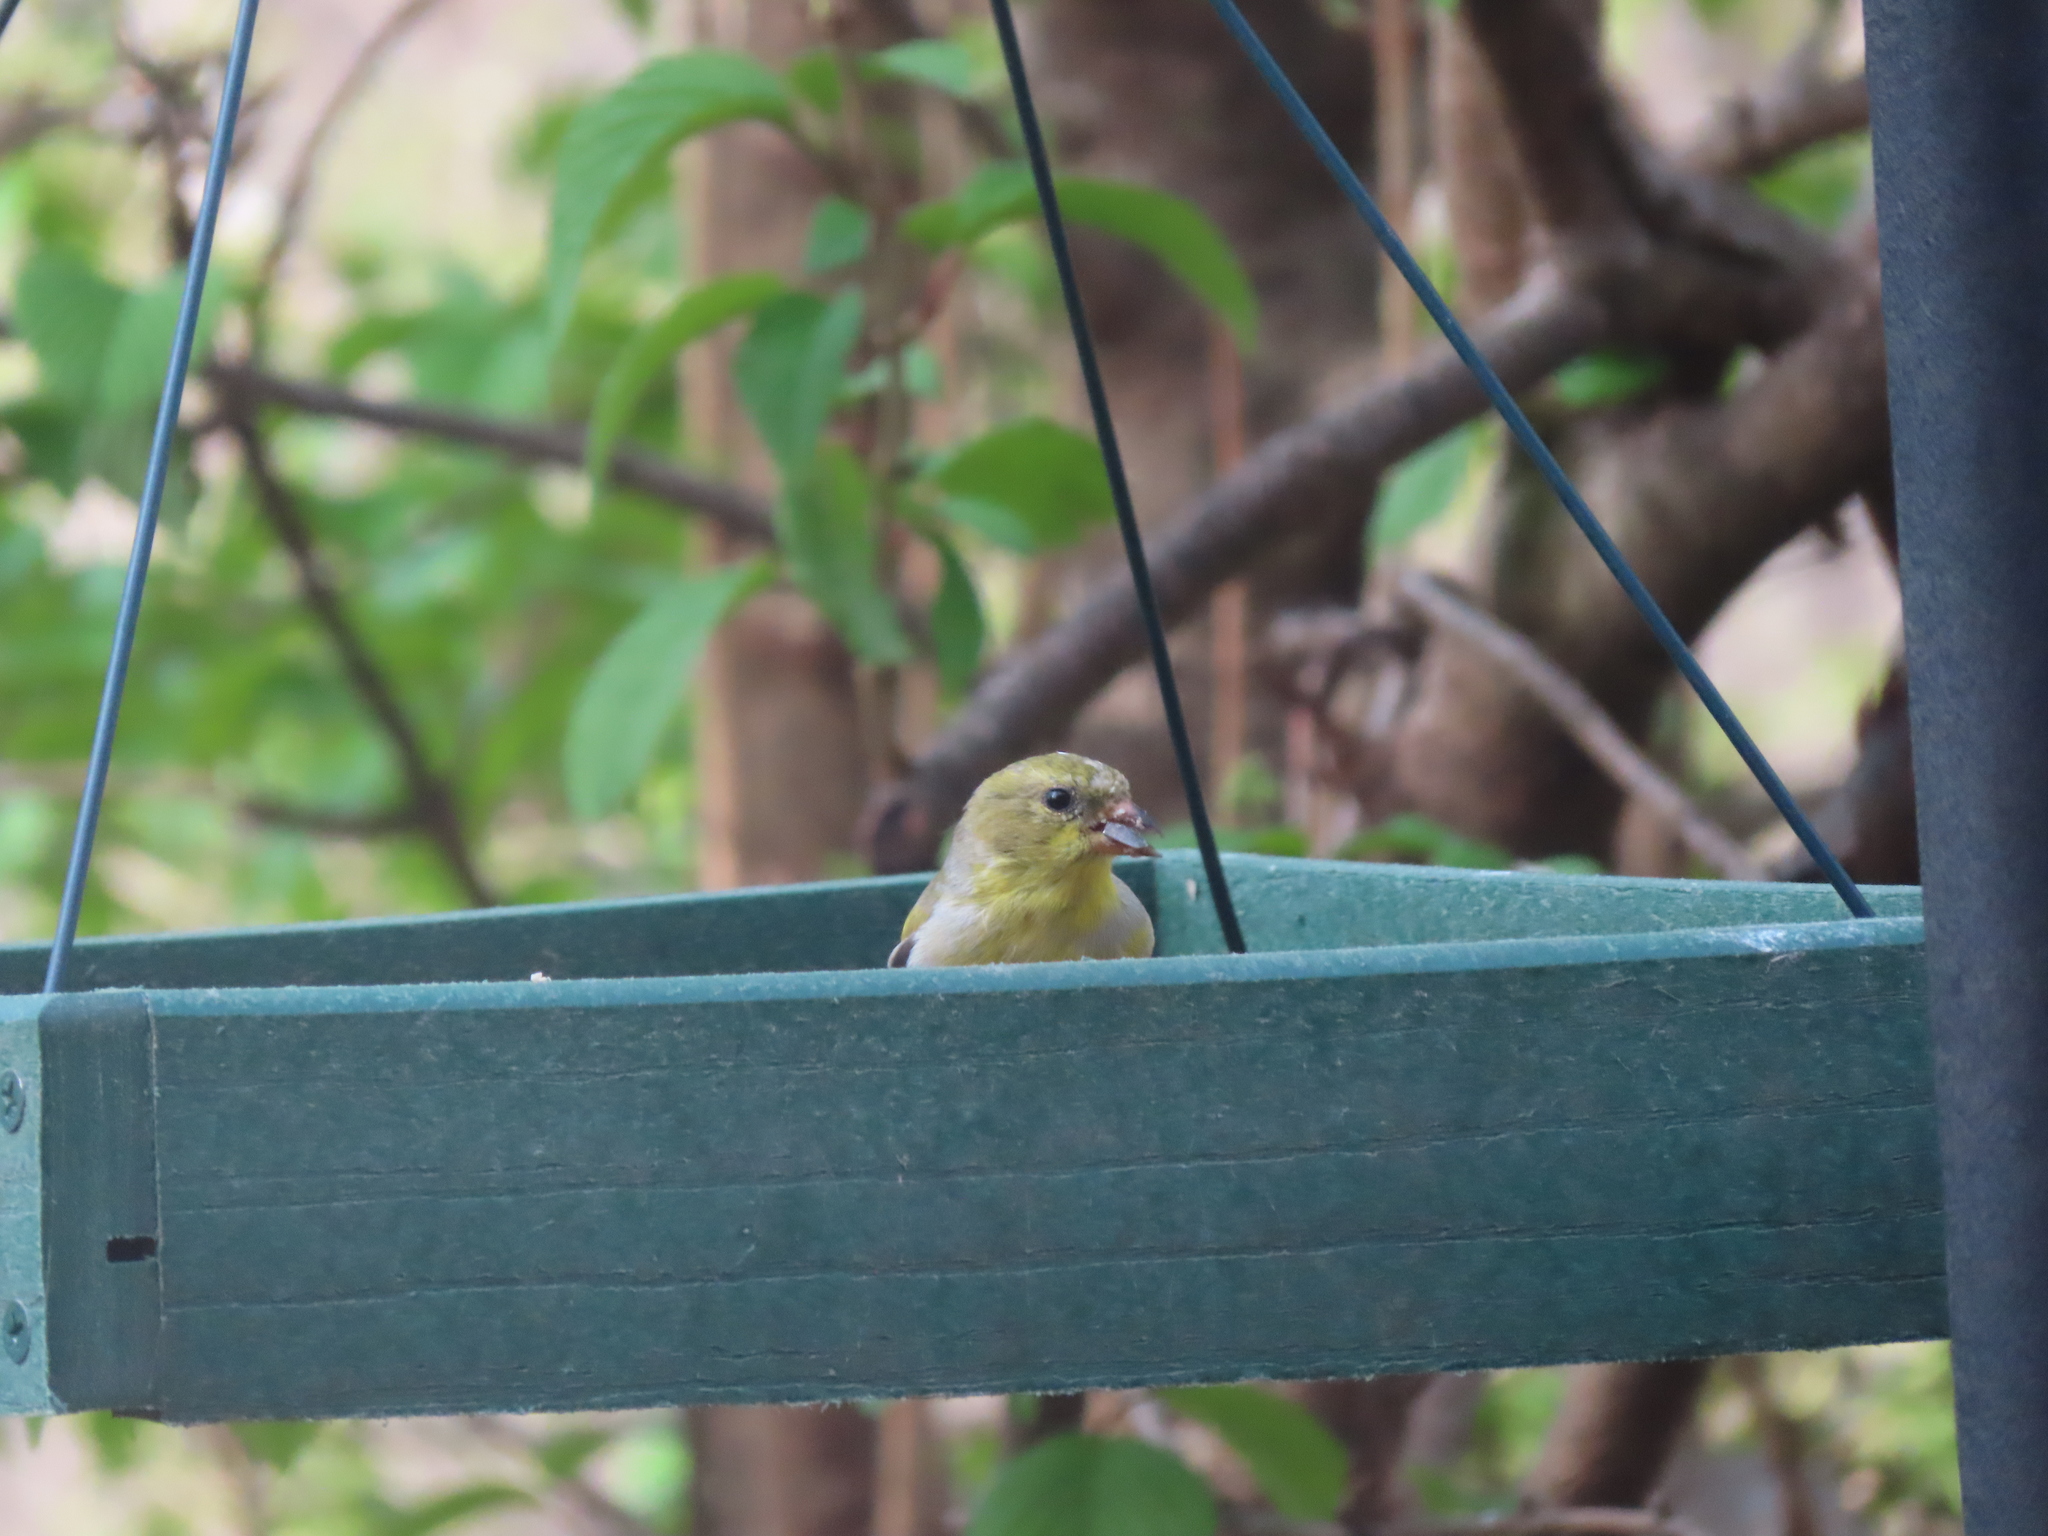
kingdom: Animalia
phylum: Chordata
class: Aves
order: Passeriformes
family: Fringillidae
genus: Spinus
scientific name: Spinus tristis
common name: American goldfinch
